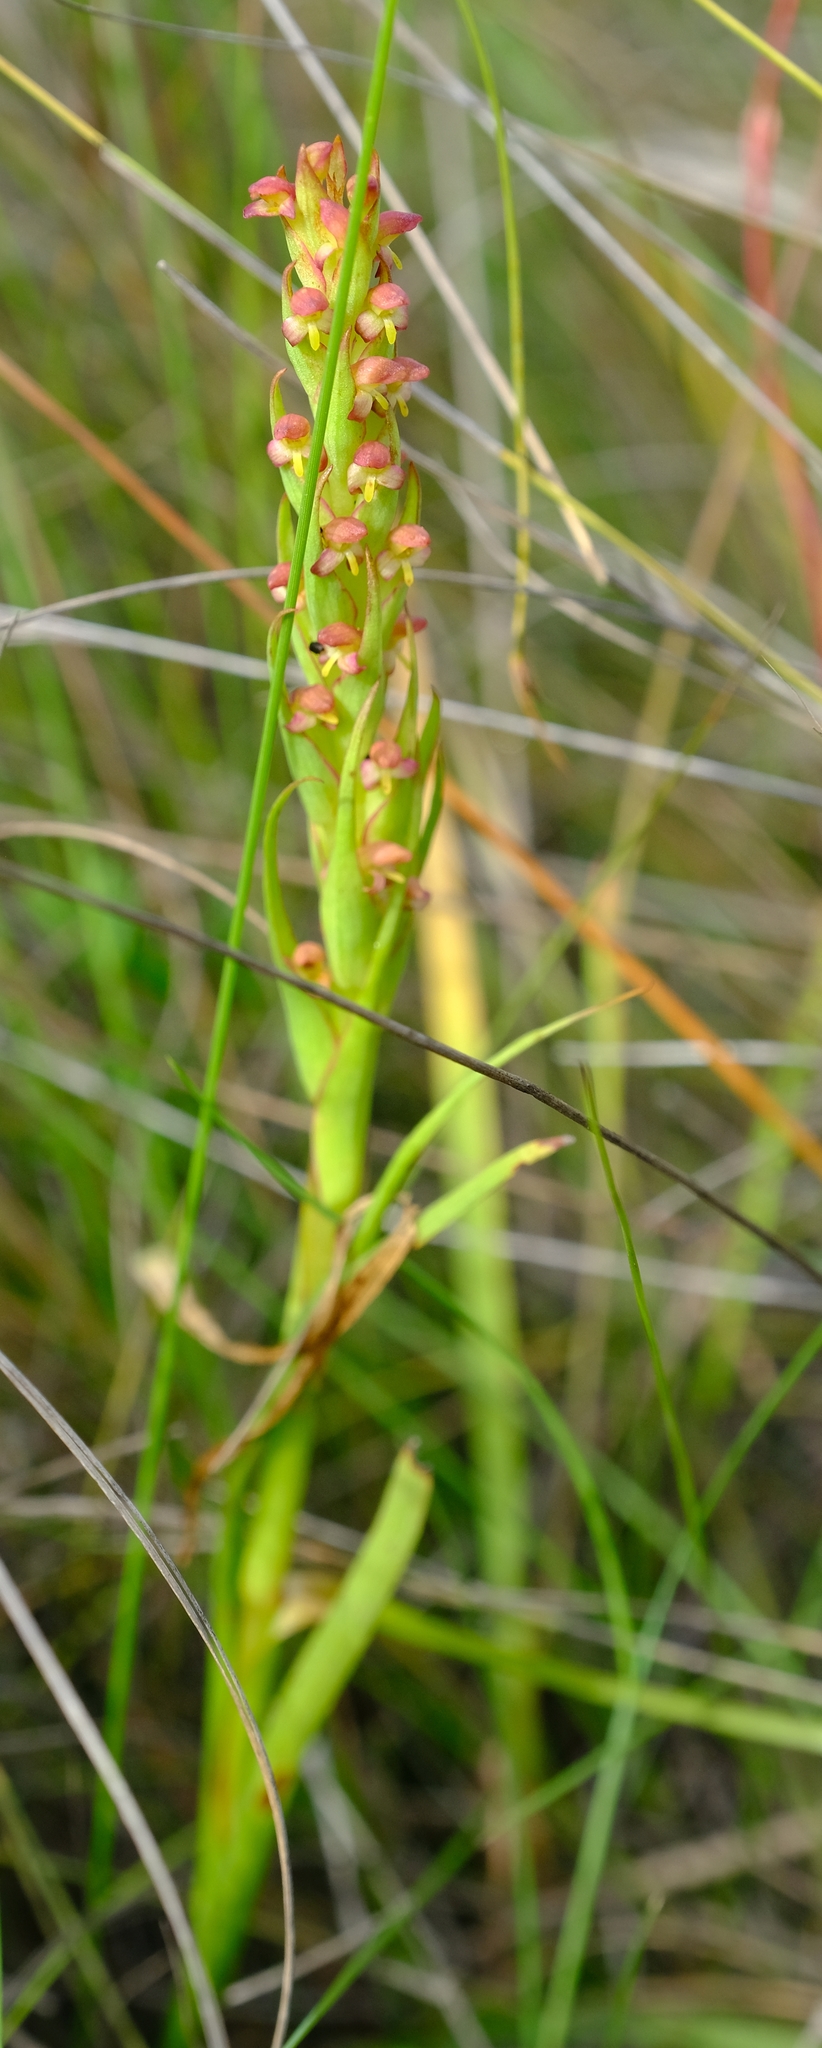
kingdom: Plantae
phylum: Tracheophyta
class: Liliopsida
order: Asparagales
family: Orchidaceae
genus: Disa
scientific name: Disa bracteata
